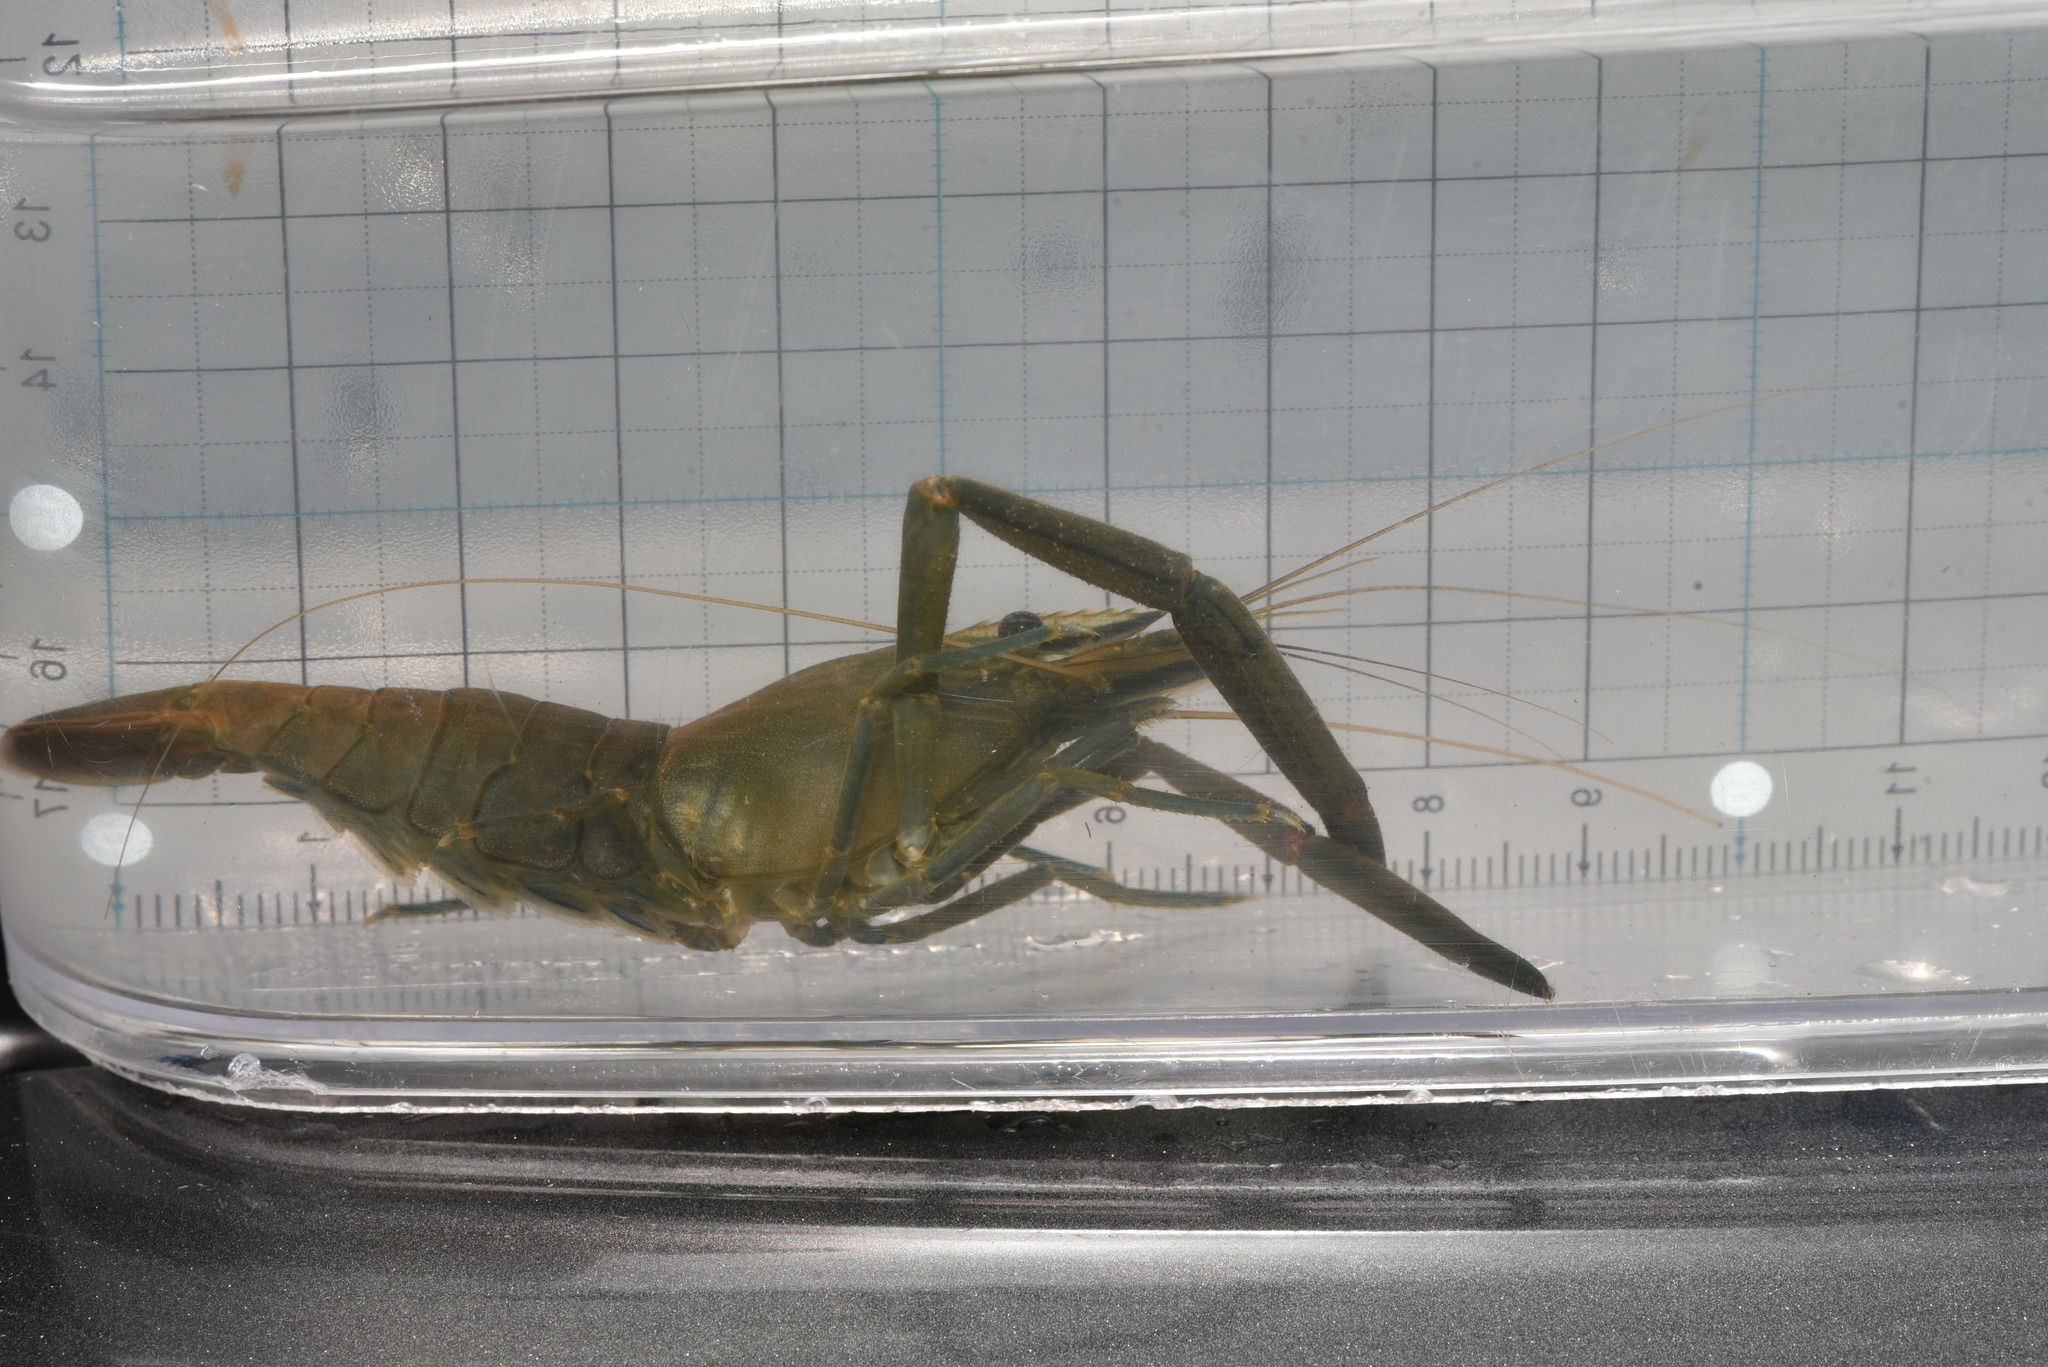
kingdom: Animalia
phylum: Arthropoda
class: Malacostraca
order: Decapoda
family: Palaemonidae
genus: Macrobrachium
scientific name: Macrobrachium asperulum
